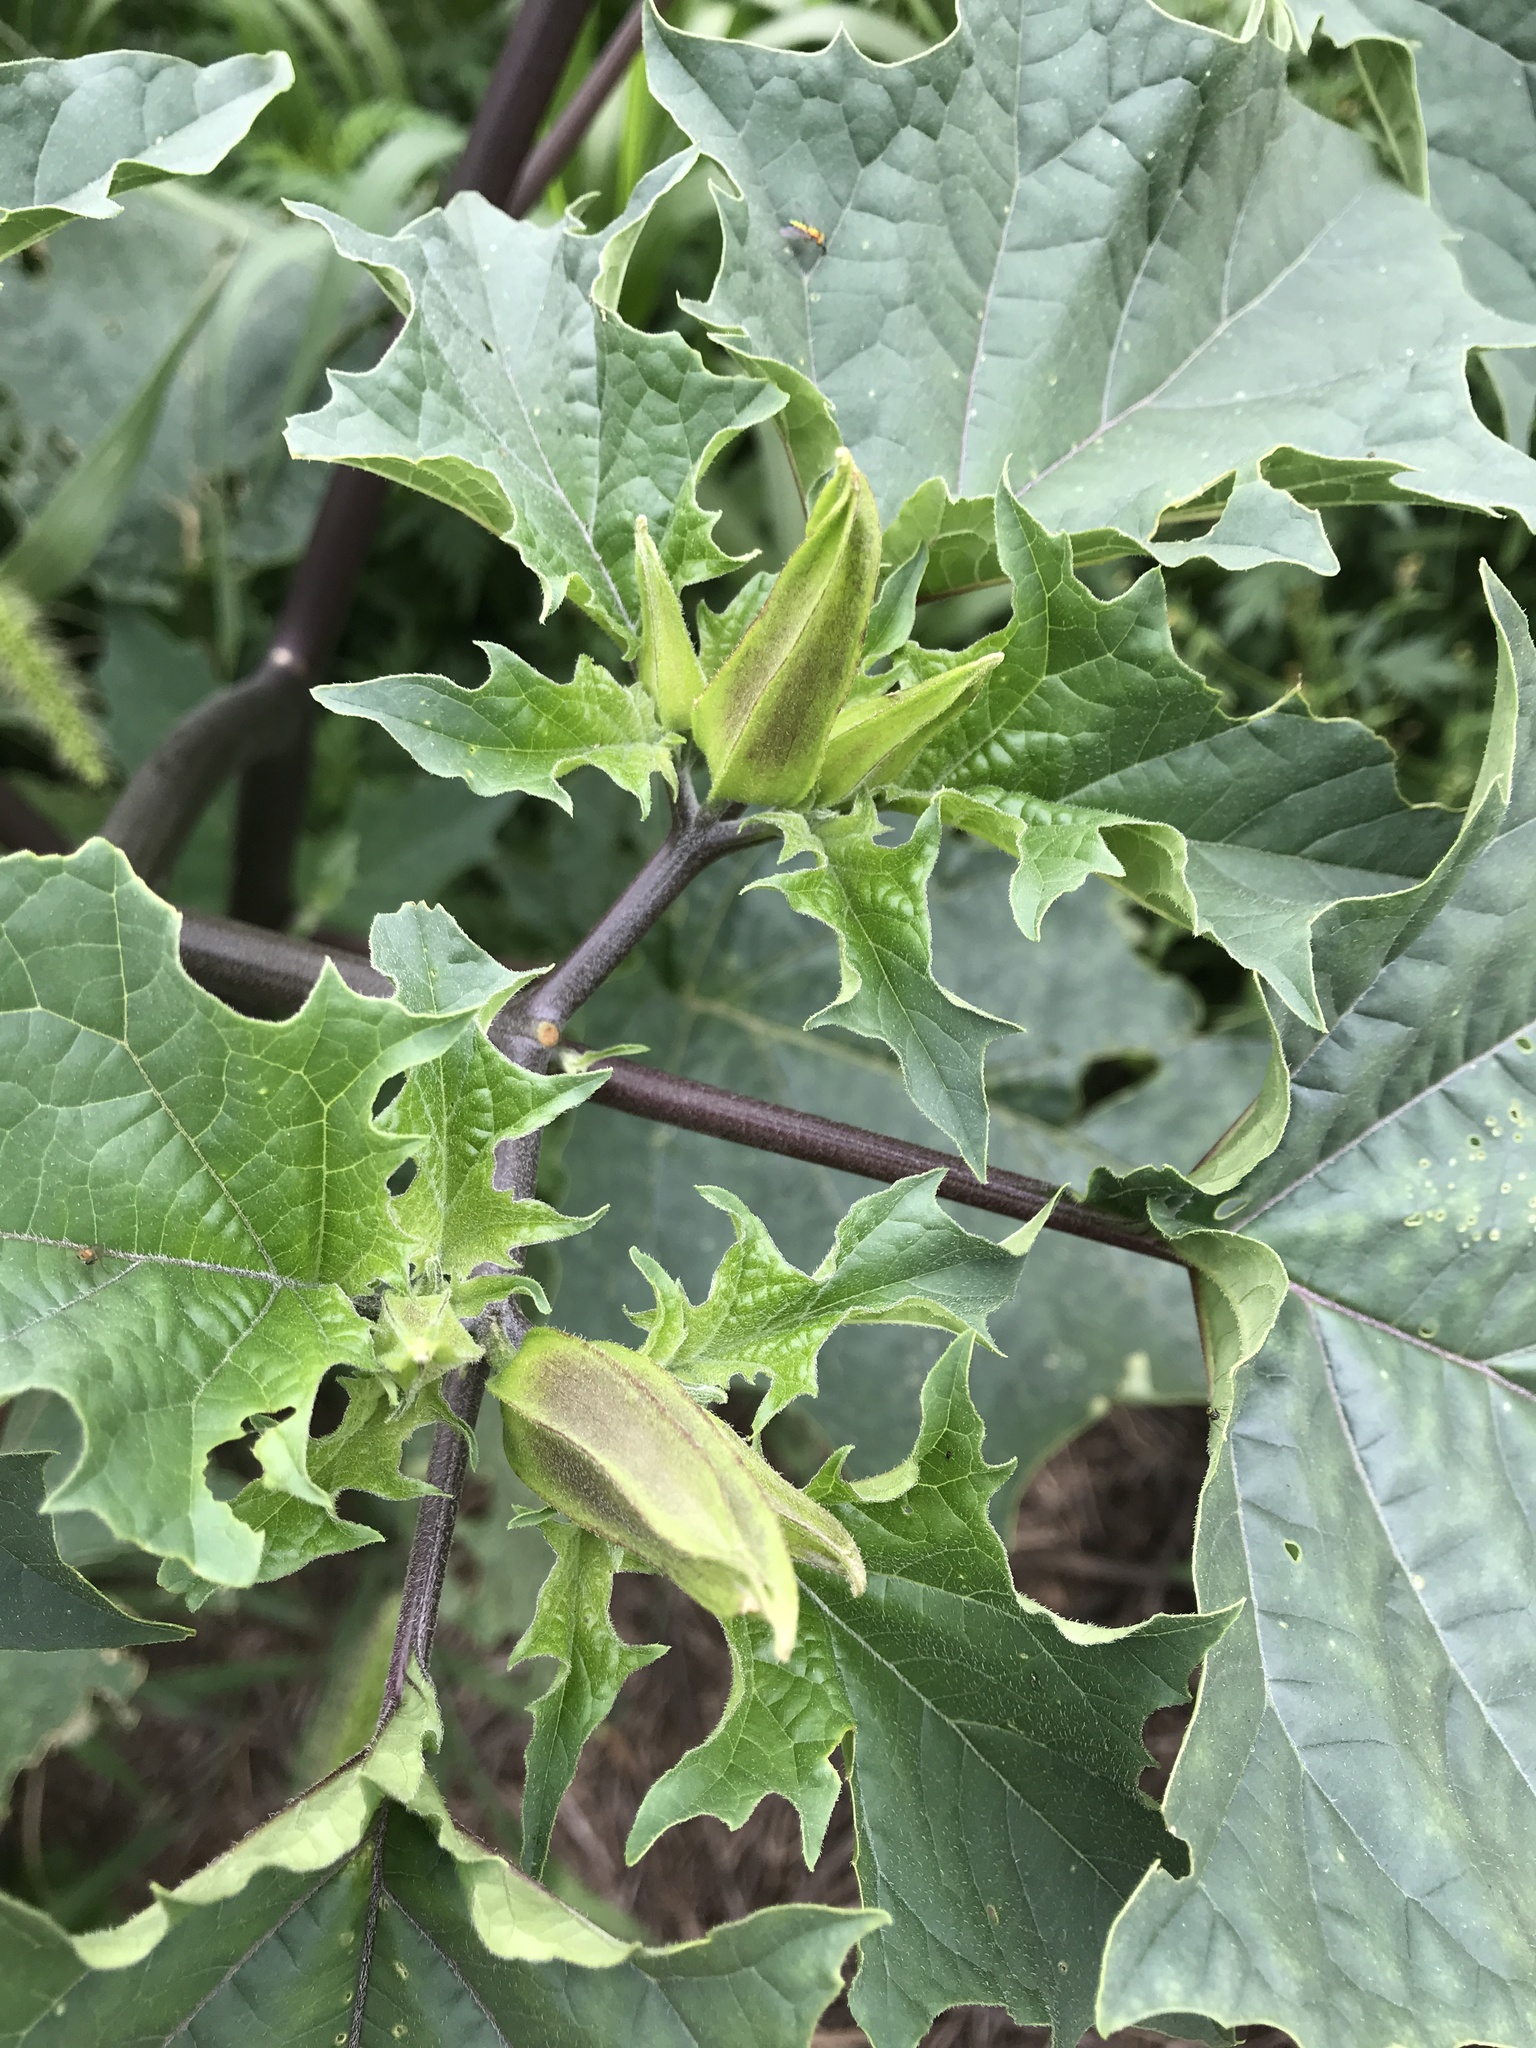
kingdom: Plantae
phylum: Tracheophyta
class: Magnoliopsida
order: Solanales
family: Solanaceae
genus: Datura
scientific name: Datura stramonium
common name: Thorn-apple
